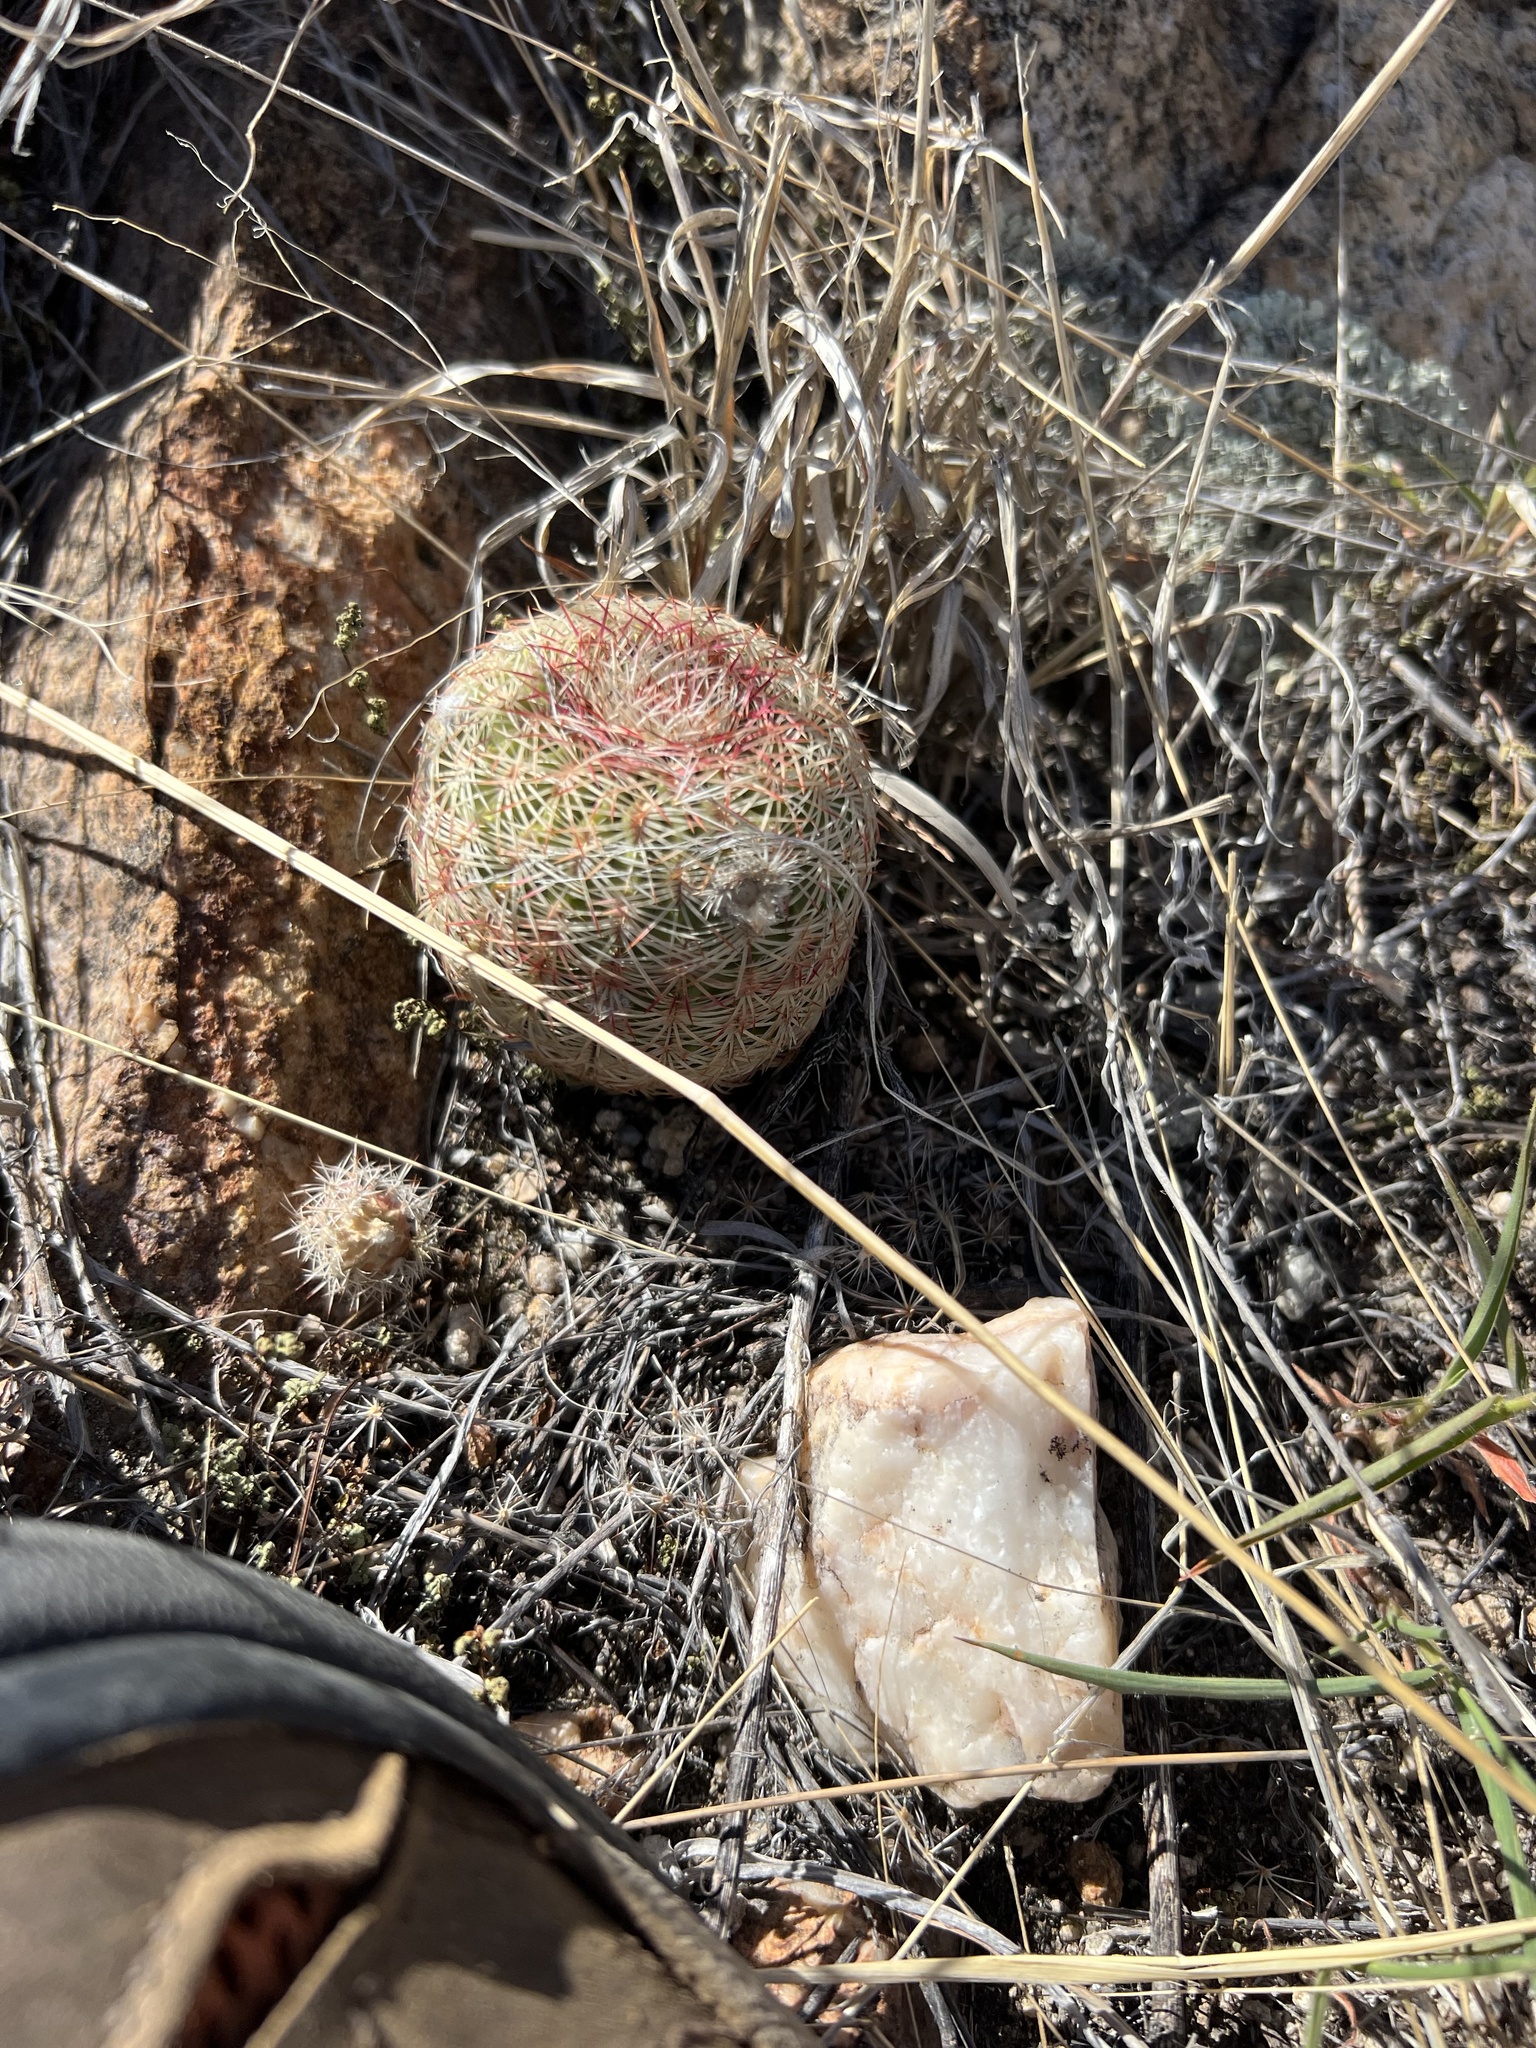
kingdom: Plantae
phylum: Tracheophyta
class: Magnoliopsida
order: Caryophyllales
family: Cactaceae
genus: Echinocereus
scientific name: Echinocereus rigidissimus
